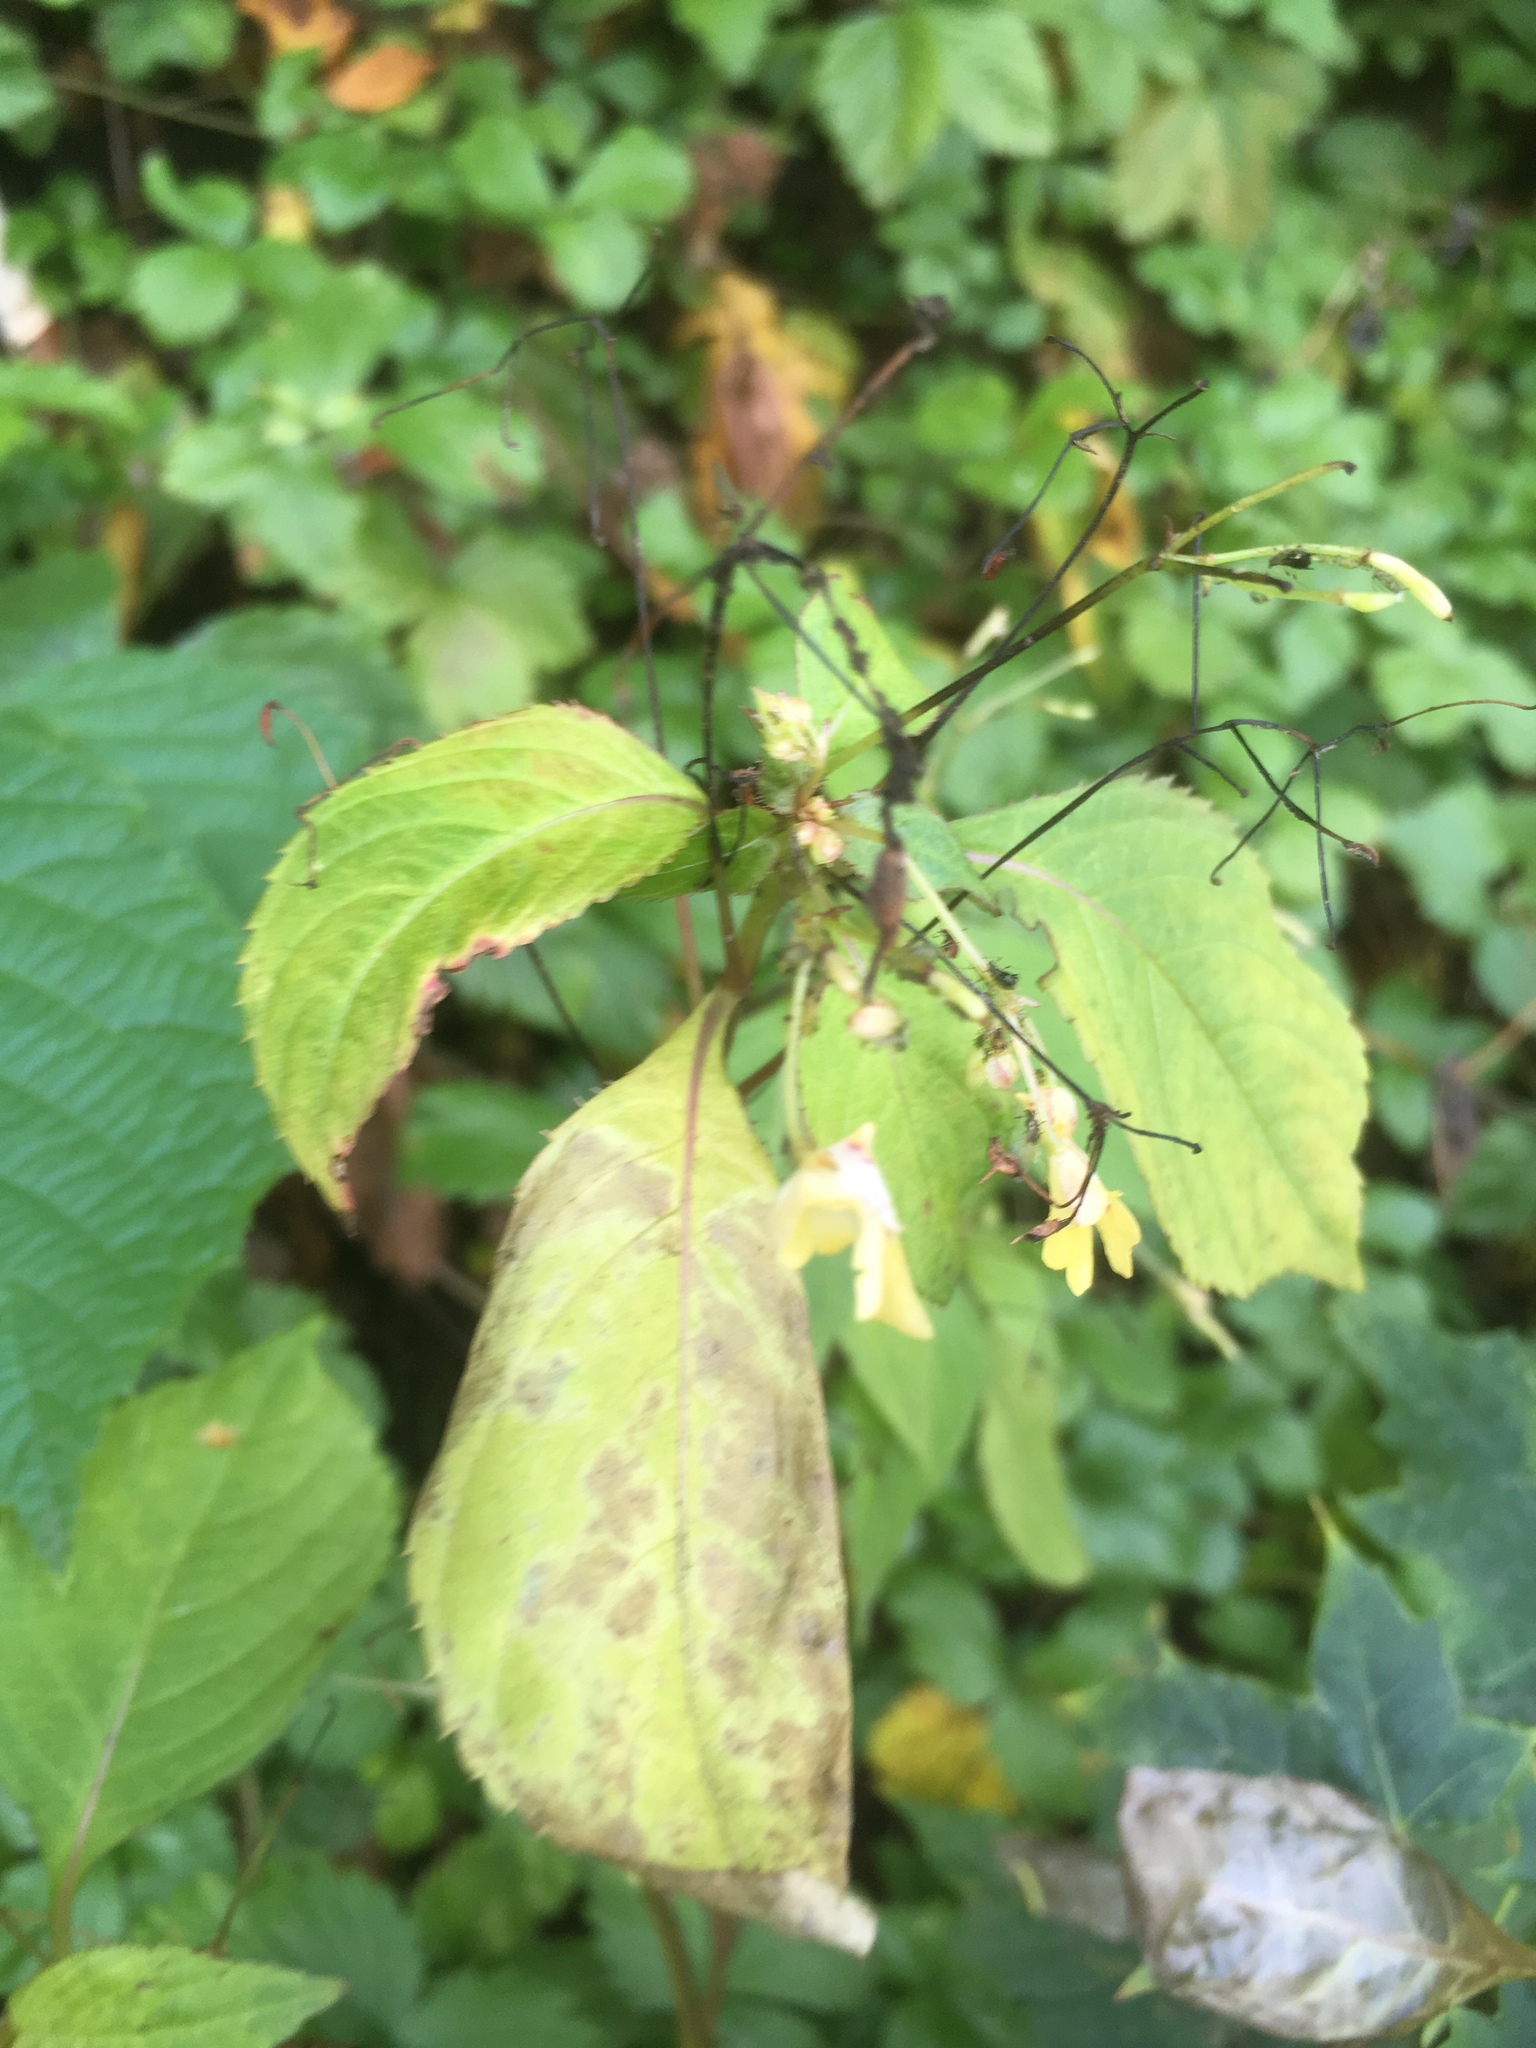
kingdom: Plantae
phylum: Tracheophyta
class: Magnoliopsida
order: Ericales
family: Balsaminaceae
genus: Impatiens
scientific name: Impatiens parviflora
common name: Small balsam
